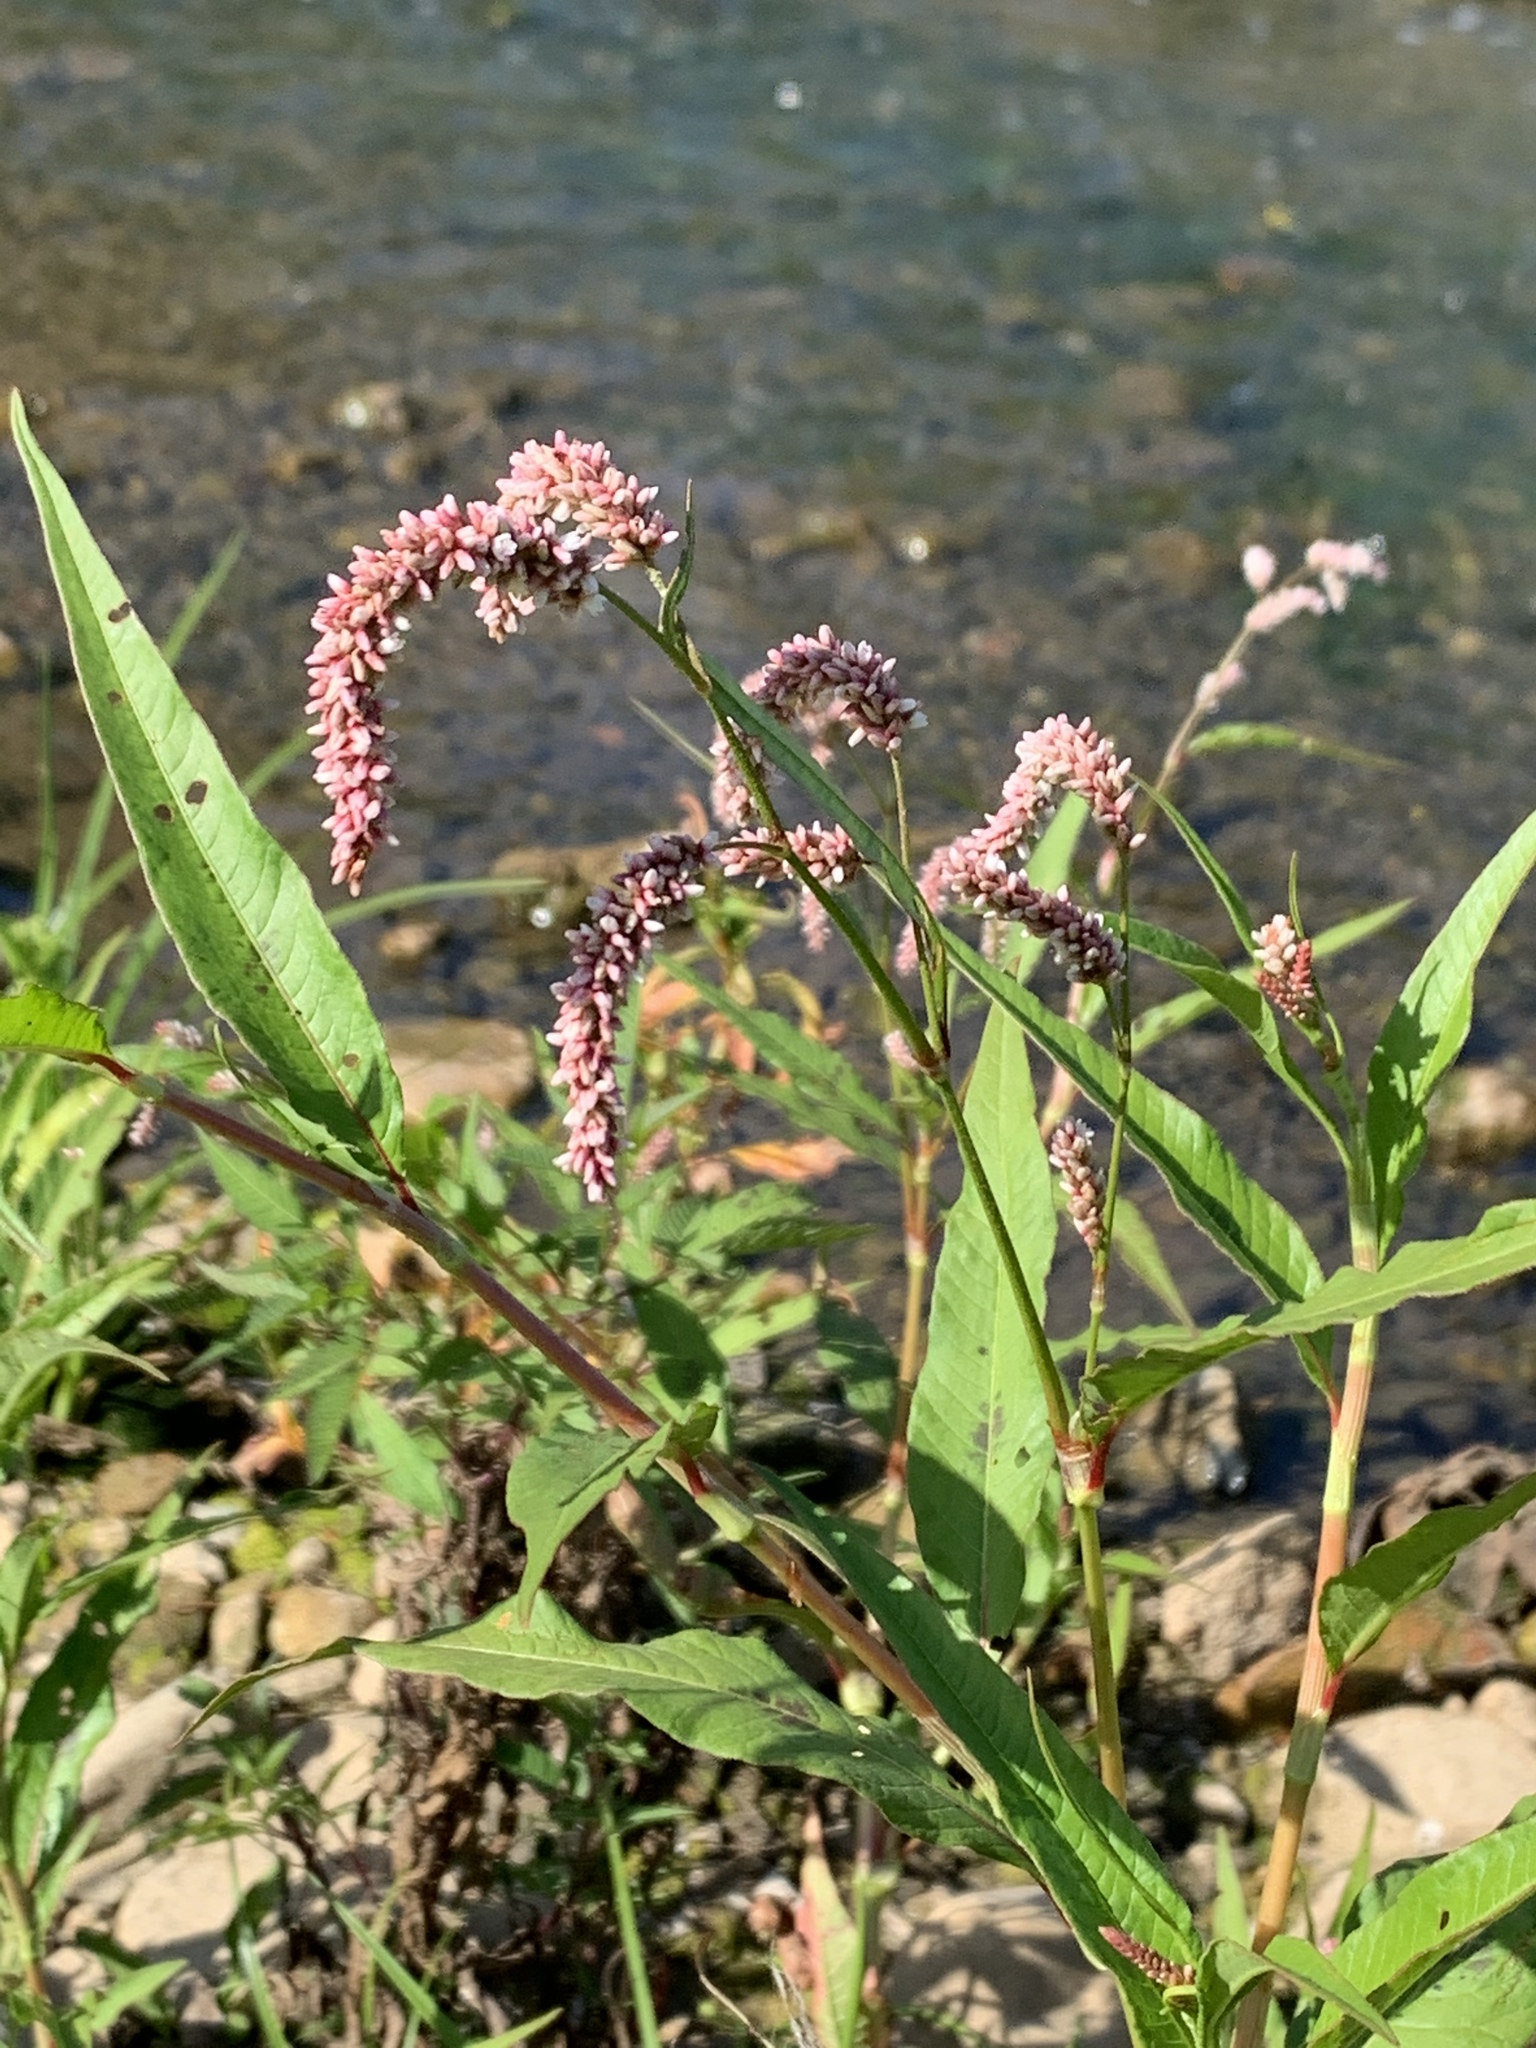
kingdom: Plantae
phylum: Tracheophyta
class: Magnoliopsida
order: Caryophyllales
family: Polygonaceae
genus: Persicaria
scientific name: Persicaria lapathifolia
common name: Curlytop knotweed
